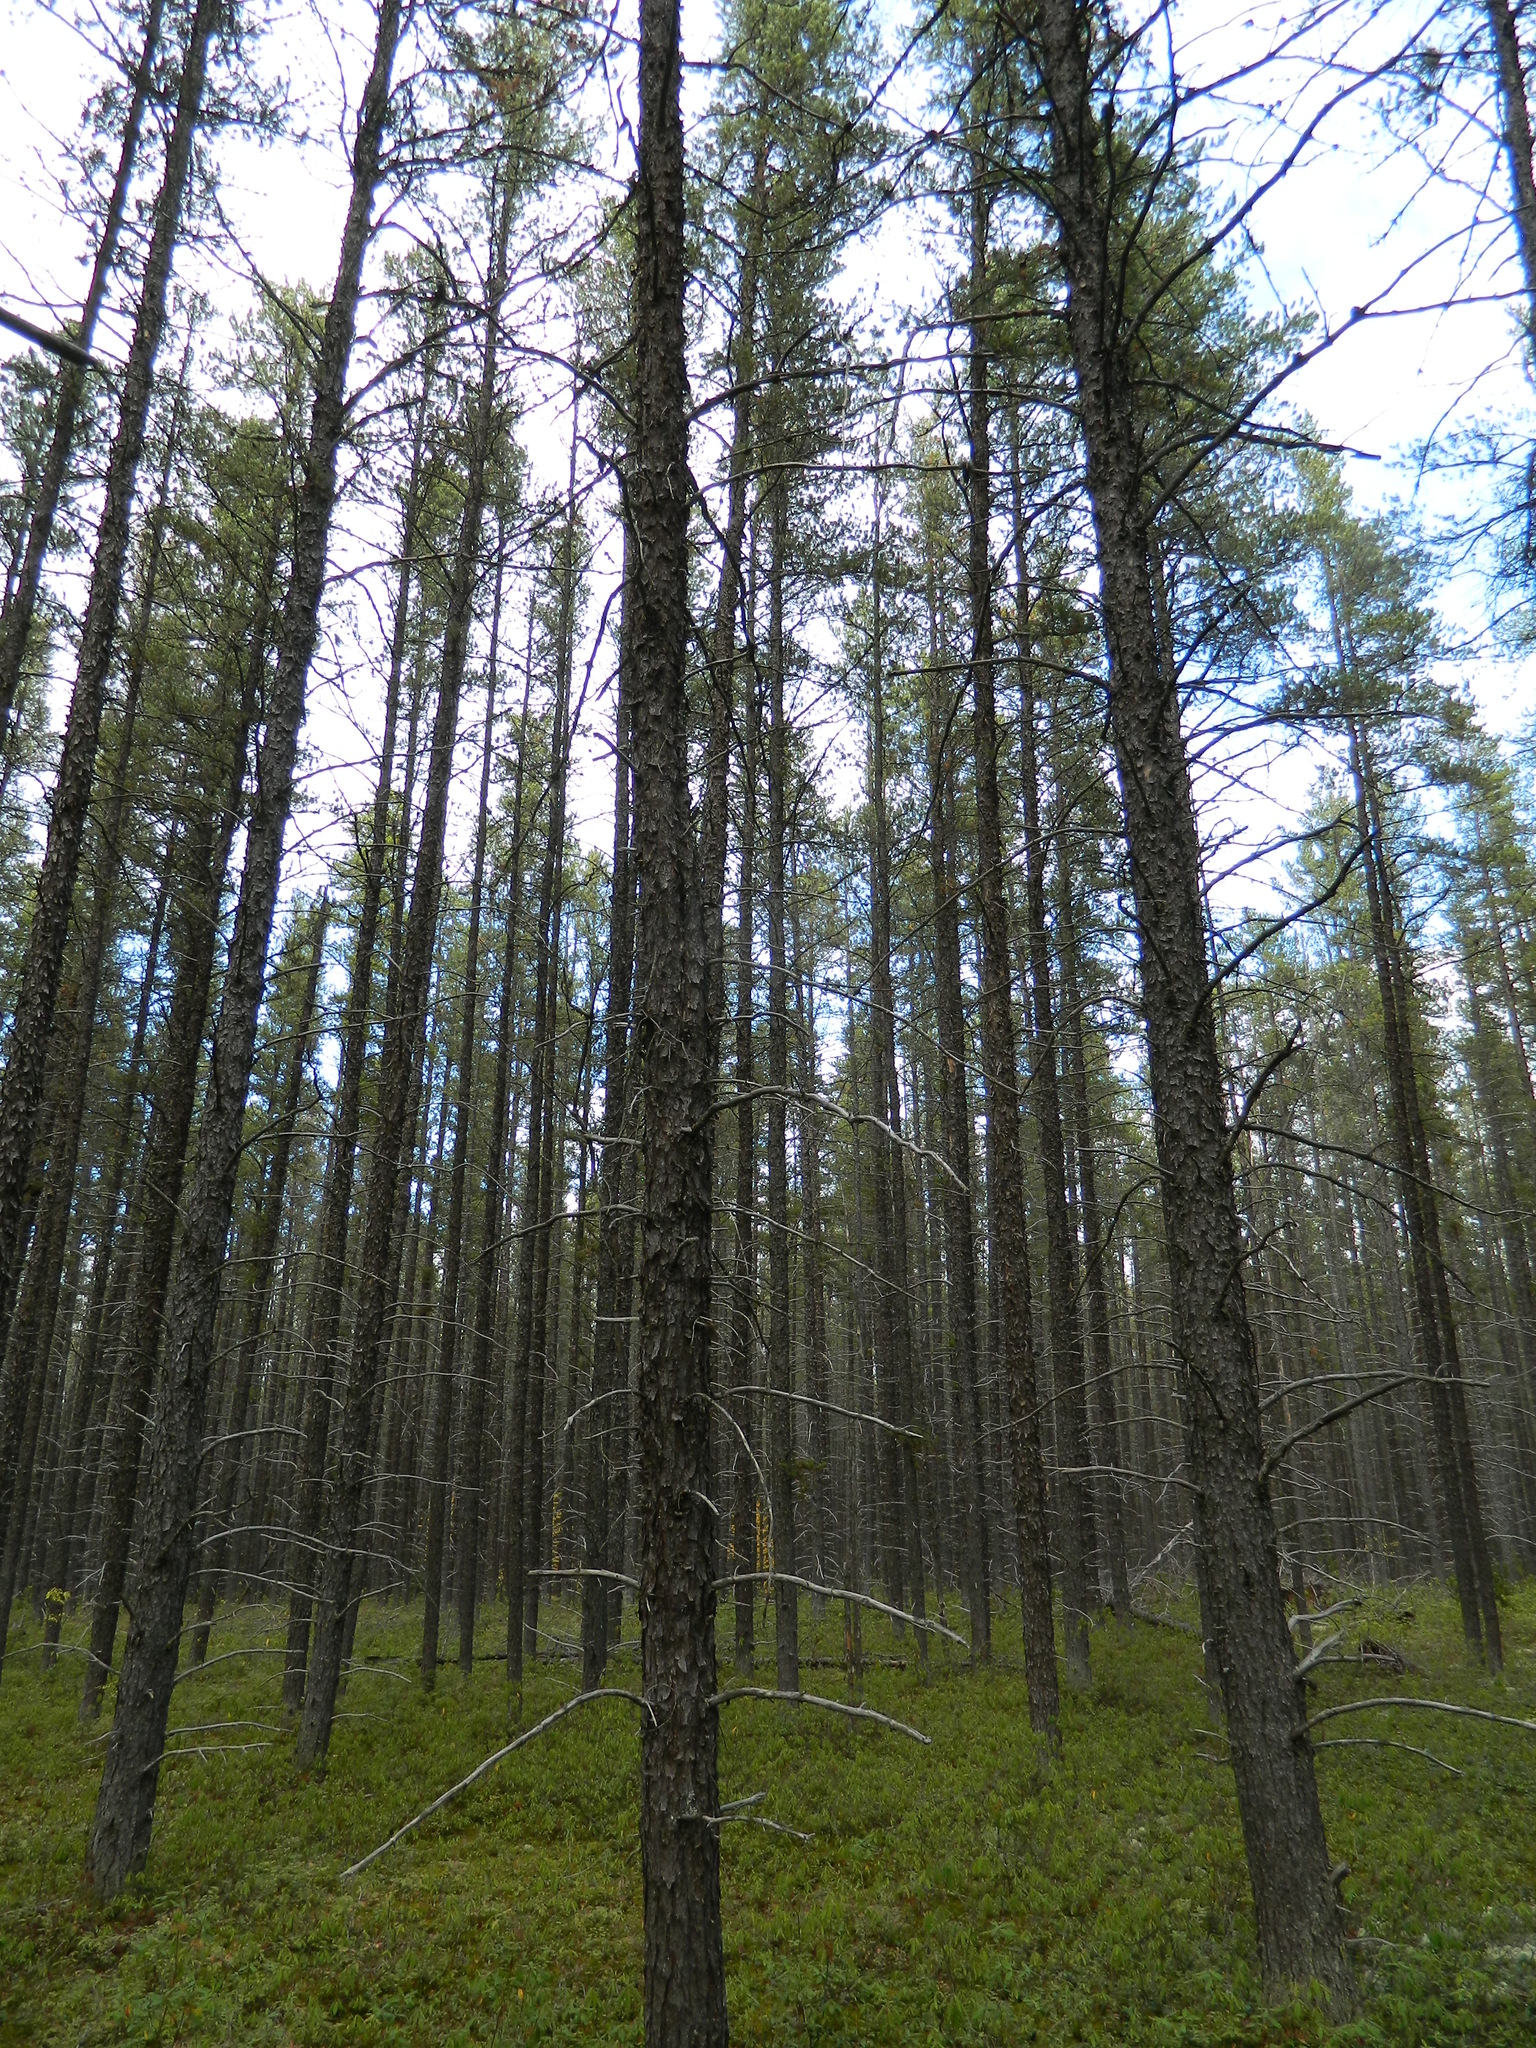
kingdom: Plantae
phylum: Tracheophyta
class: Pinopsida
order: Pinales
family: Pinaceae
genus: Pinus
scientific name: Pinus banksiana
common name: Jack pine
